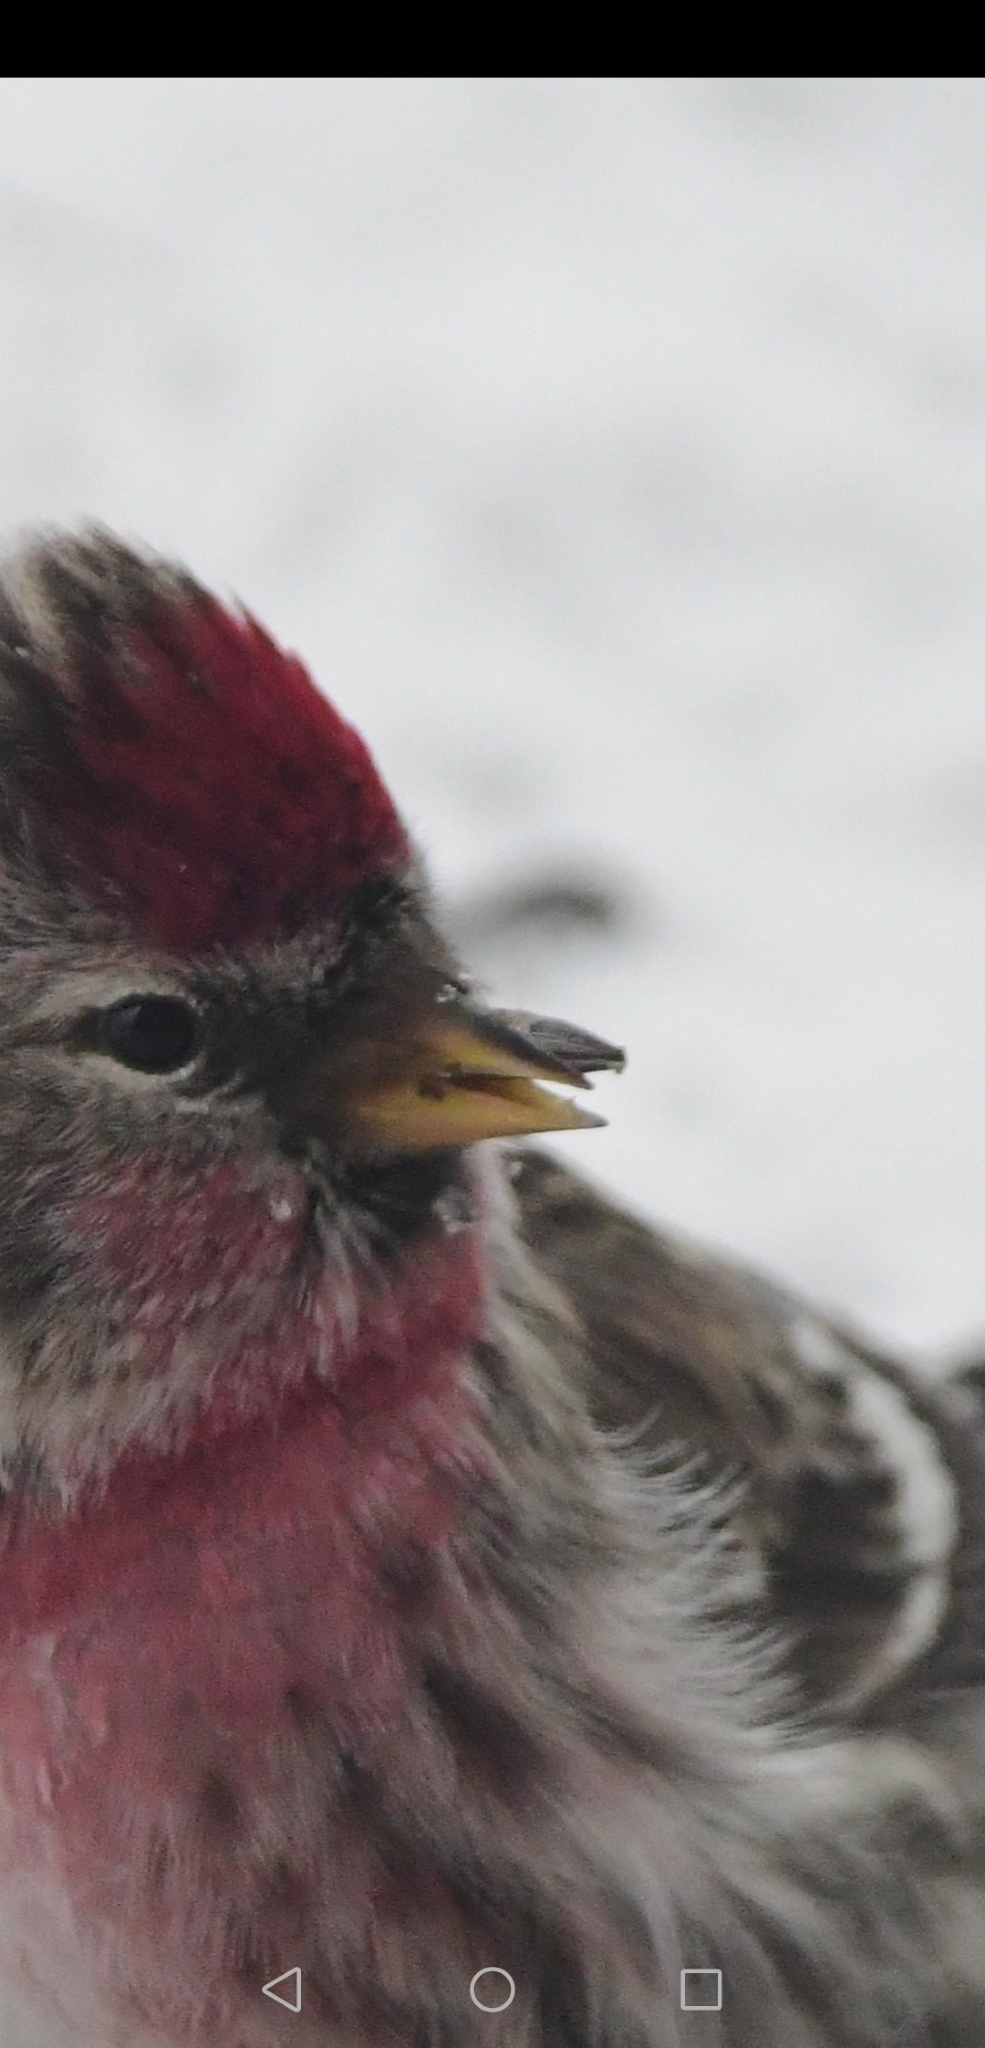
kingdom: Animalia
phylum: Chordata
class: Aves
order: Passeriformes
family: Fringillidae
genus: Acanthis
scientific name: Acanthis flammea
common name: Common redpoll
